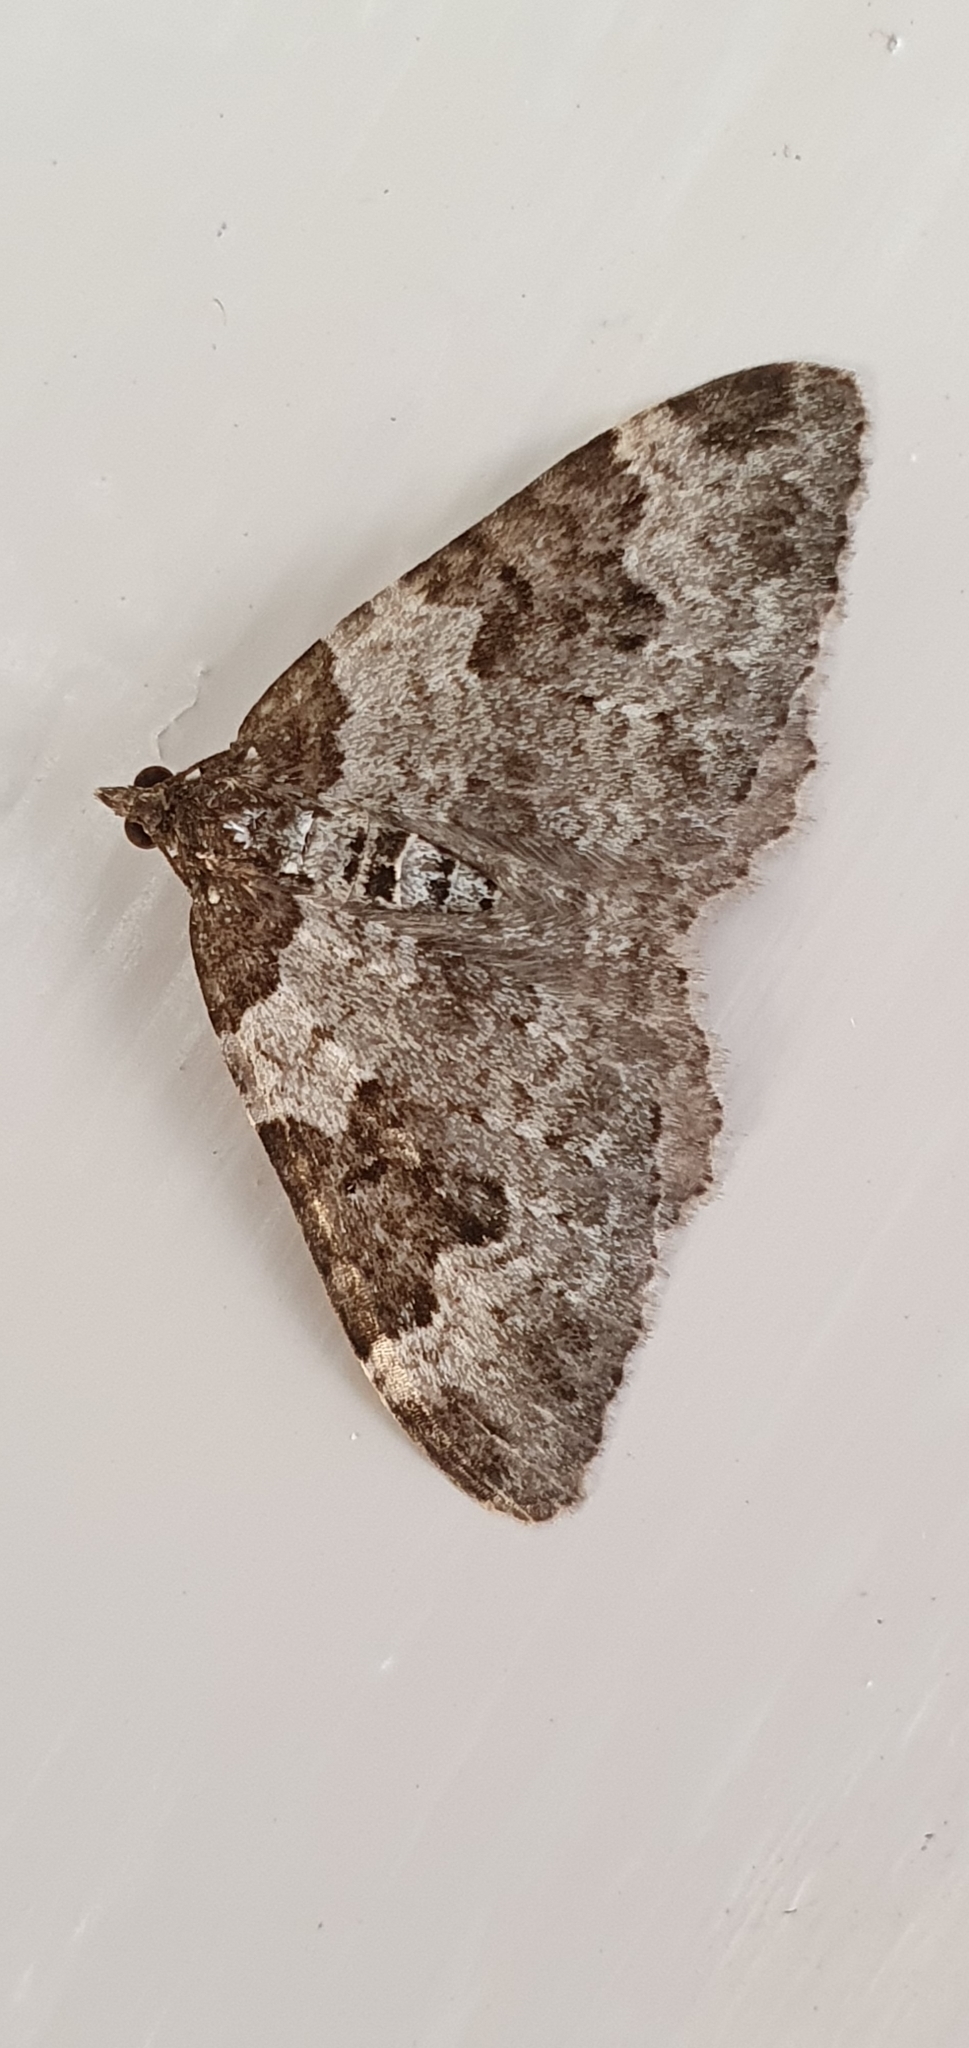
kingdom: Animalia
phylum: Arthropoda
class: Insecta
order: Lepidoptera
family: Geometridae
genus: Xanthorhoe
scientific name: Xanthorhoe fluctuata
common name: Garden carpet
